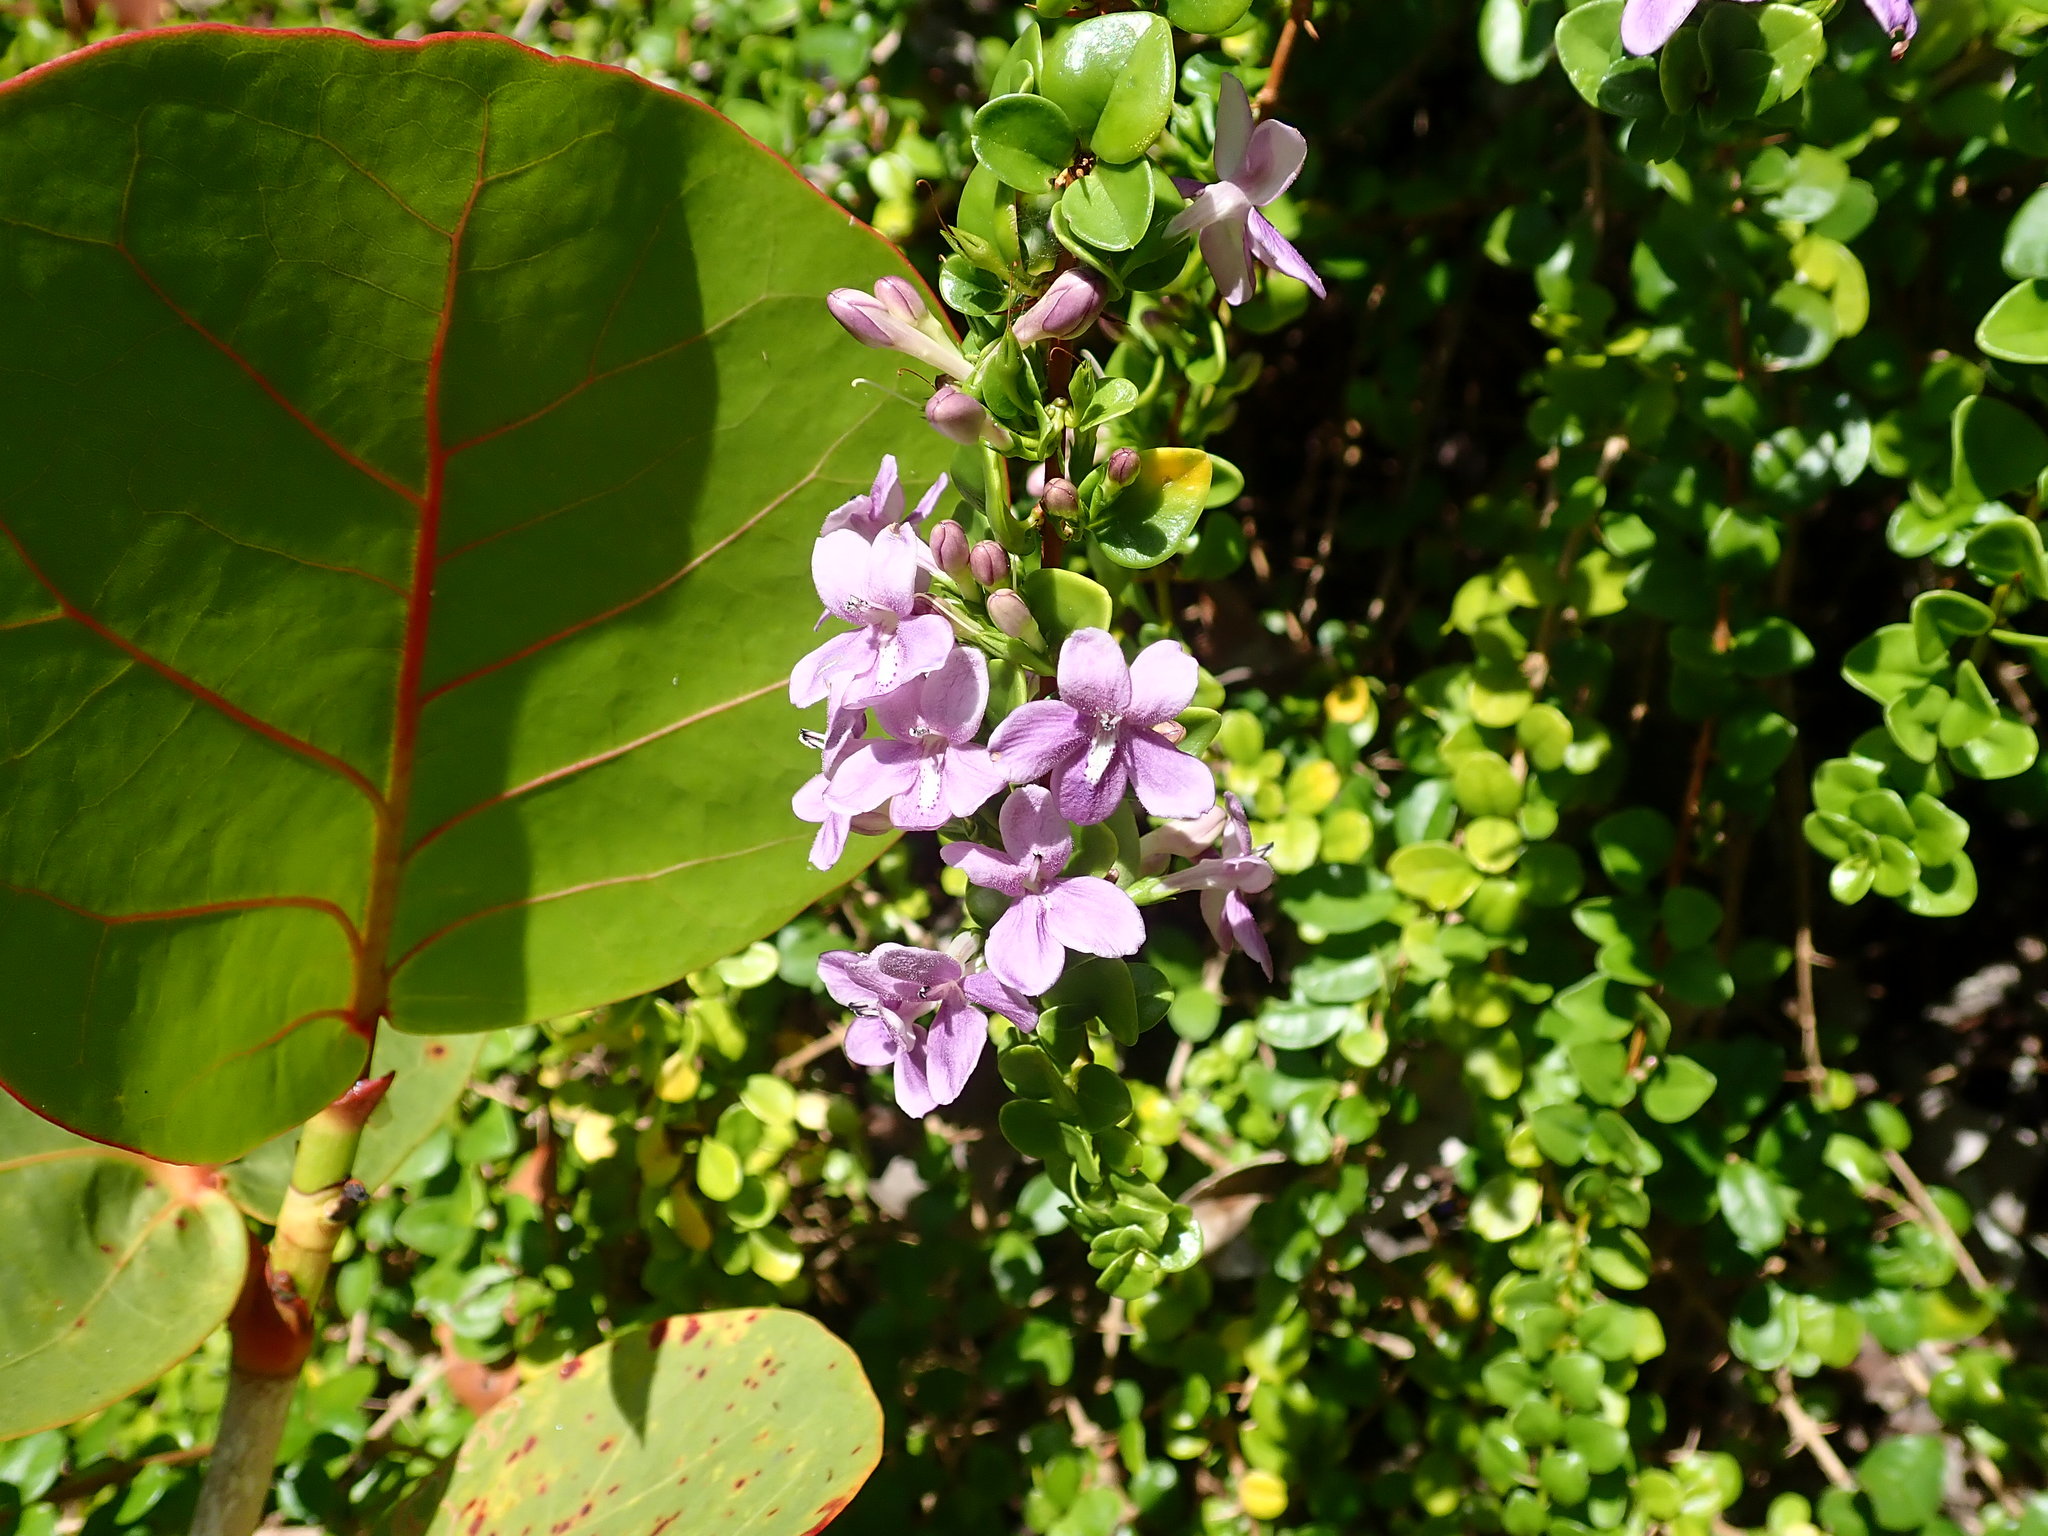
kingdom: Plantae
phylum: Tracheophyta
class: Magnoliopsida
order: Lamiales
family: Acanthaceae
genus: Oplonia
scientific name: Oplonia spinosa
